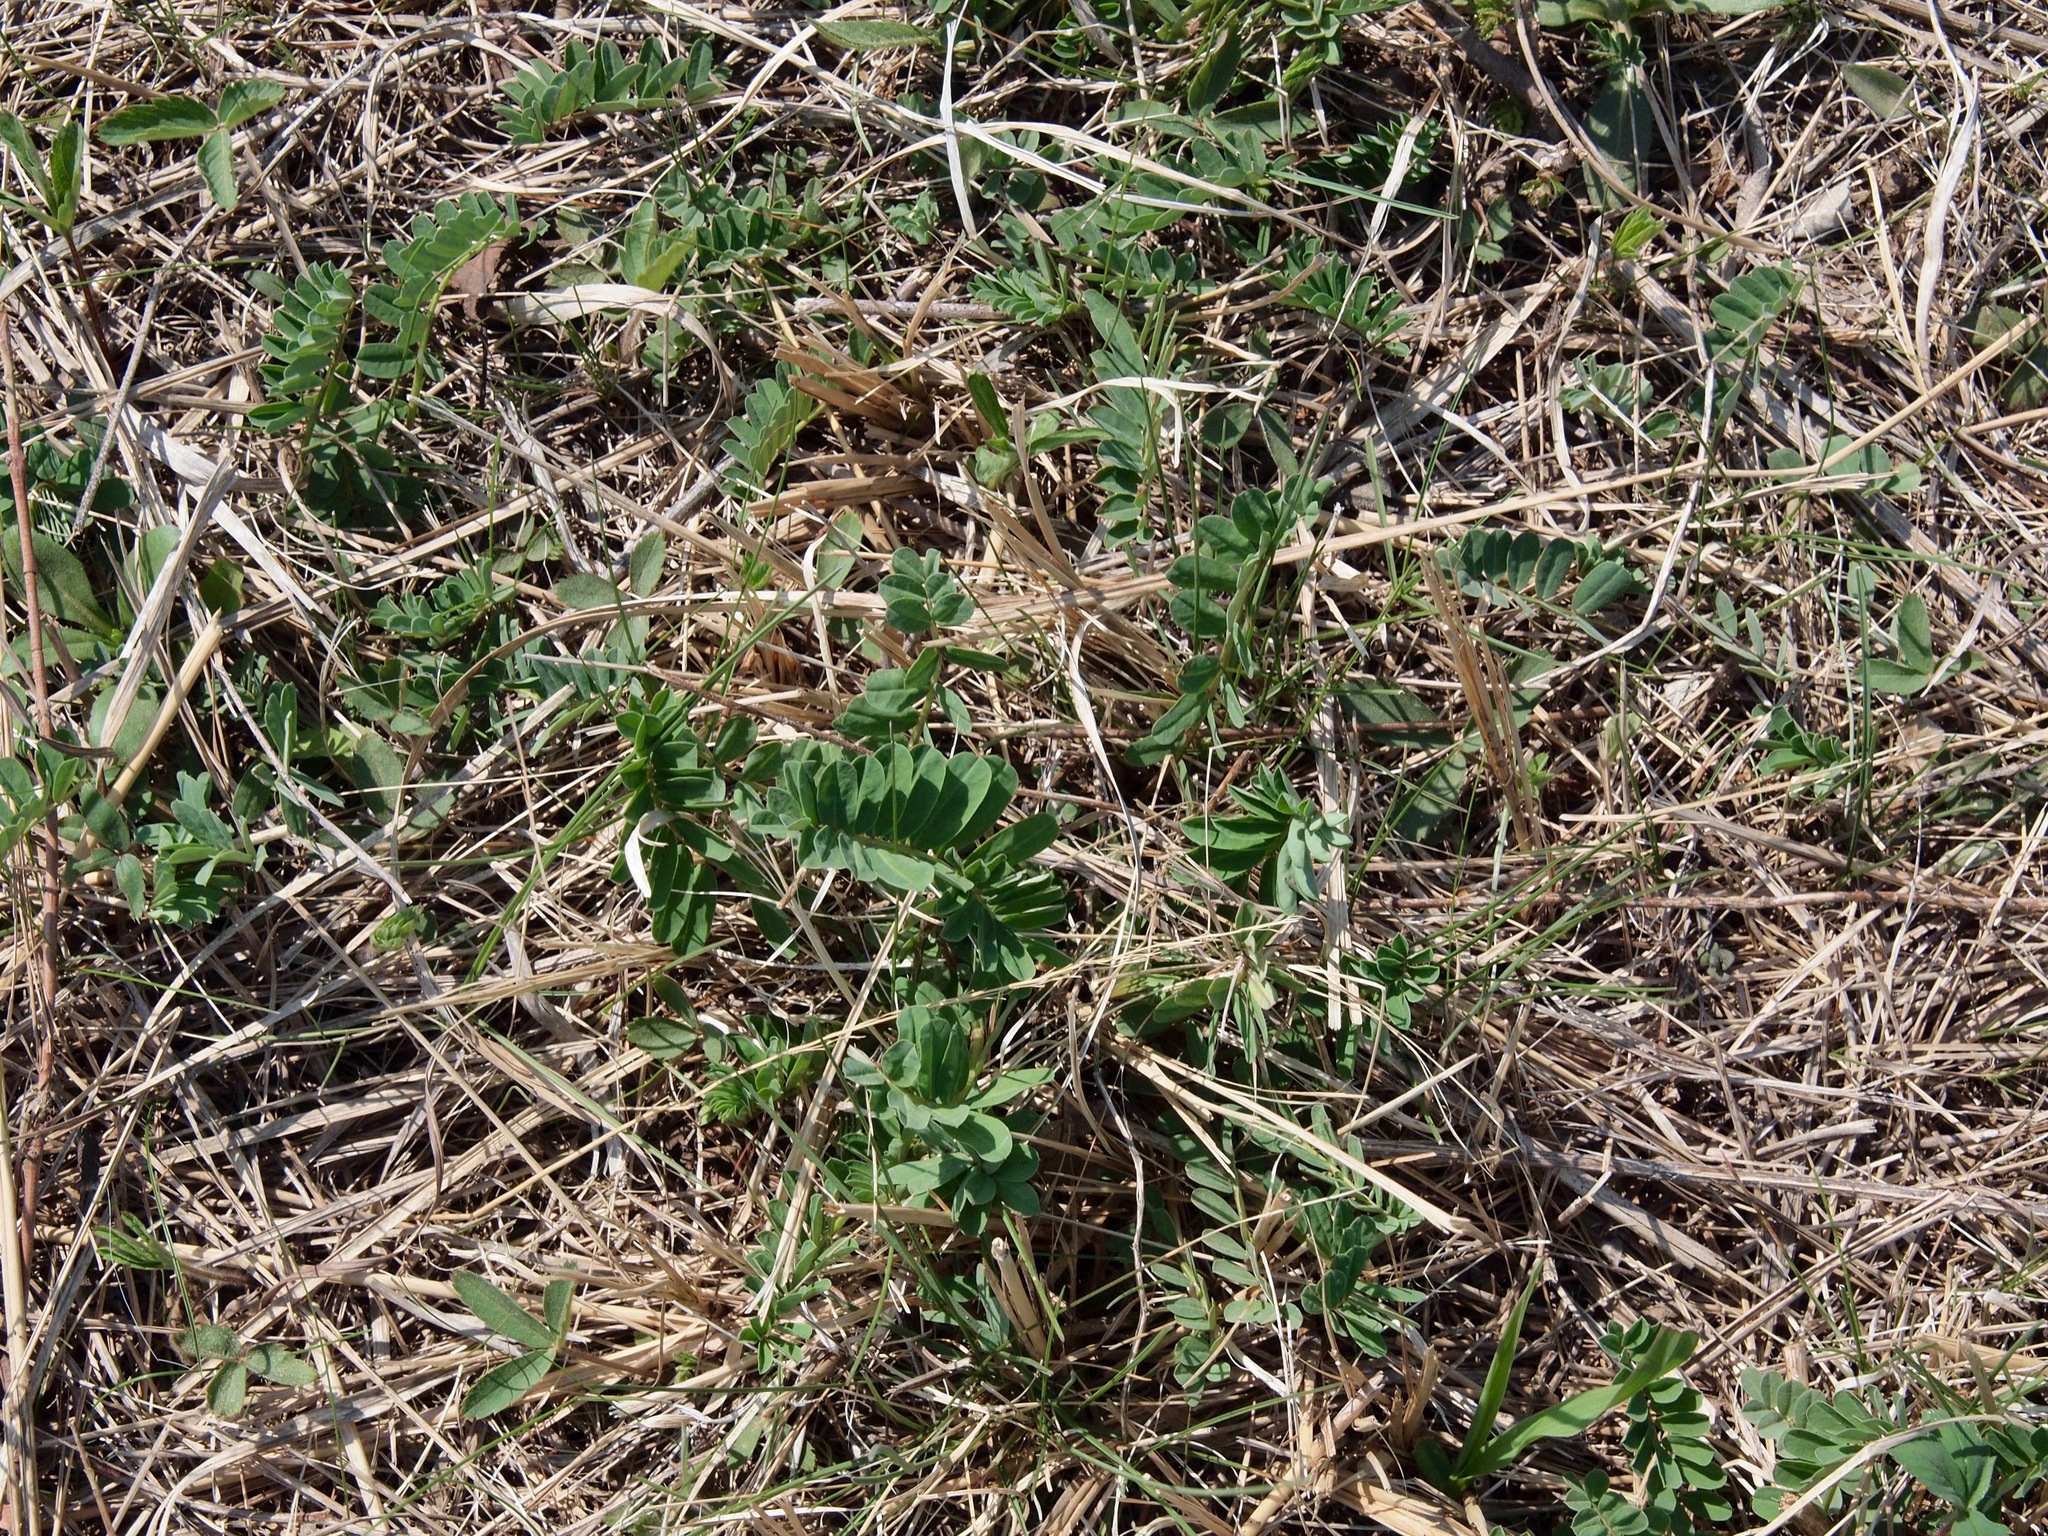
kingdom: Plantae
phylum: Tracheophyta
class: Magnoliopsida
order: Fabales
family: Fabaceae
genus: Coronilla
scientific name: Coronilla varia
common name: Crownvetch
